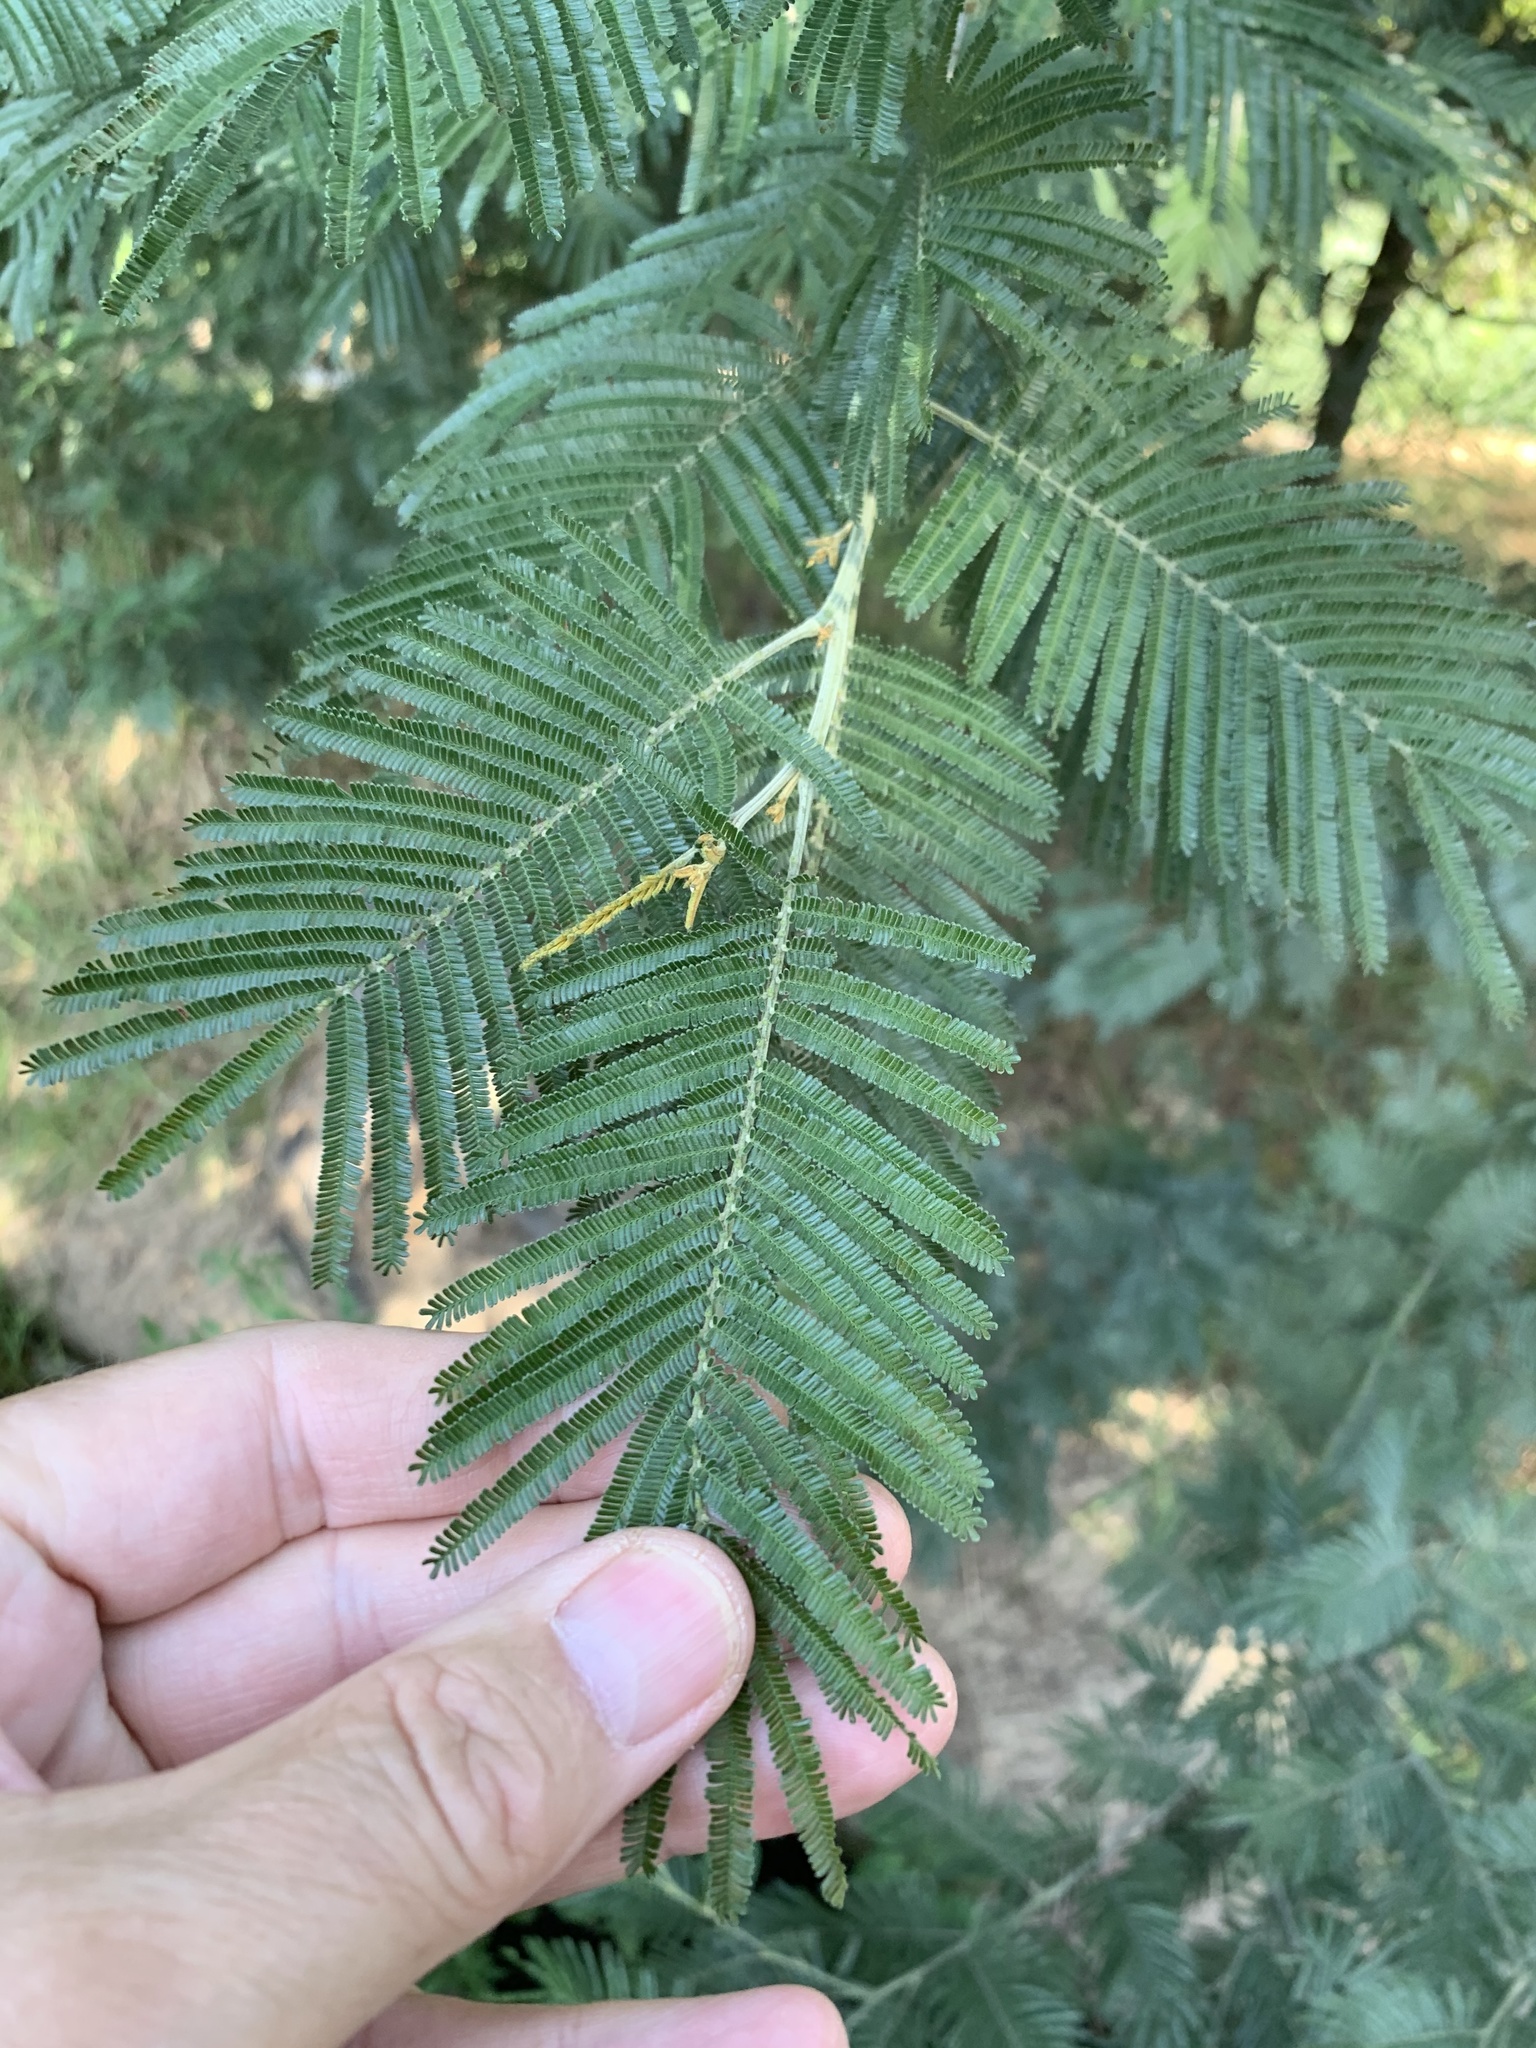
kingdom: Plantae
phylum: Tracheophyta
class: Magnoliopsida
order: Fabales
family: Fabaceae
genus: Acacia
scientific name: Acacia mearnsii
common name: Black wattle
